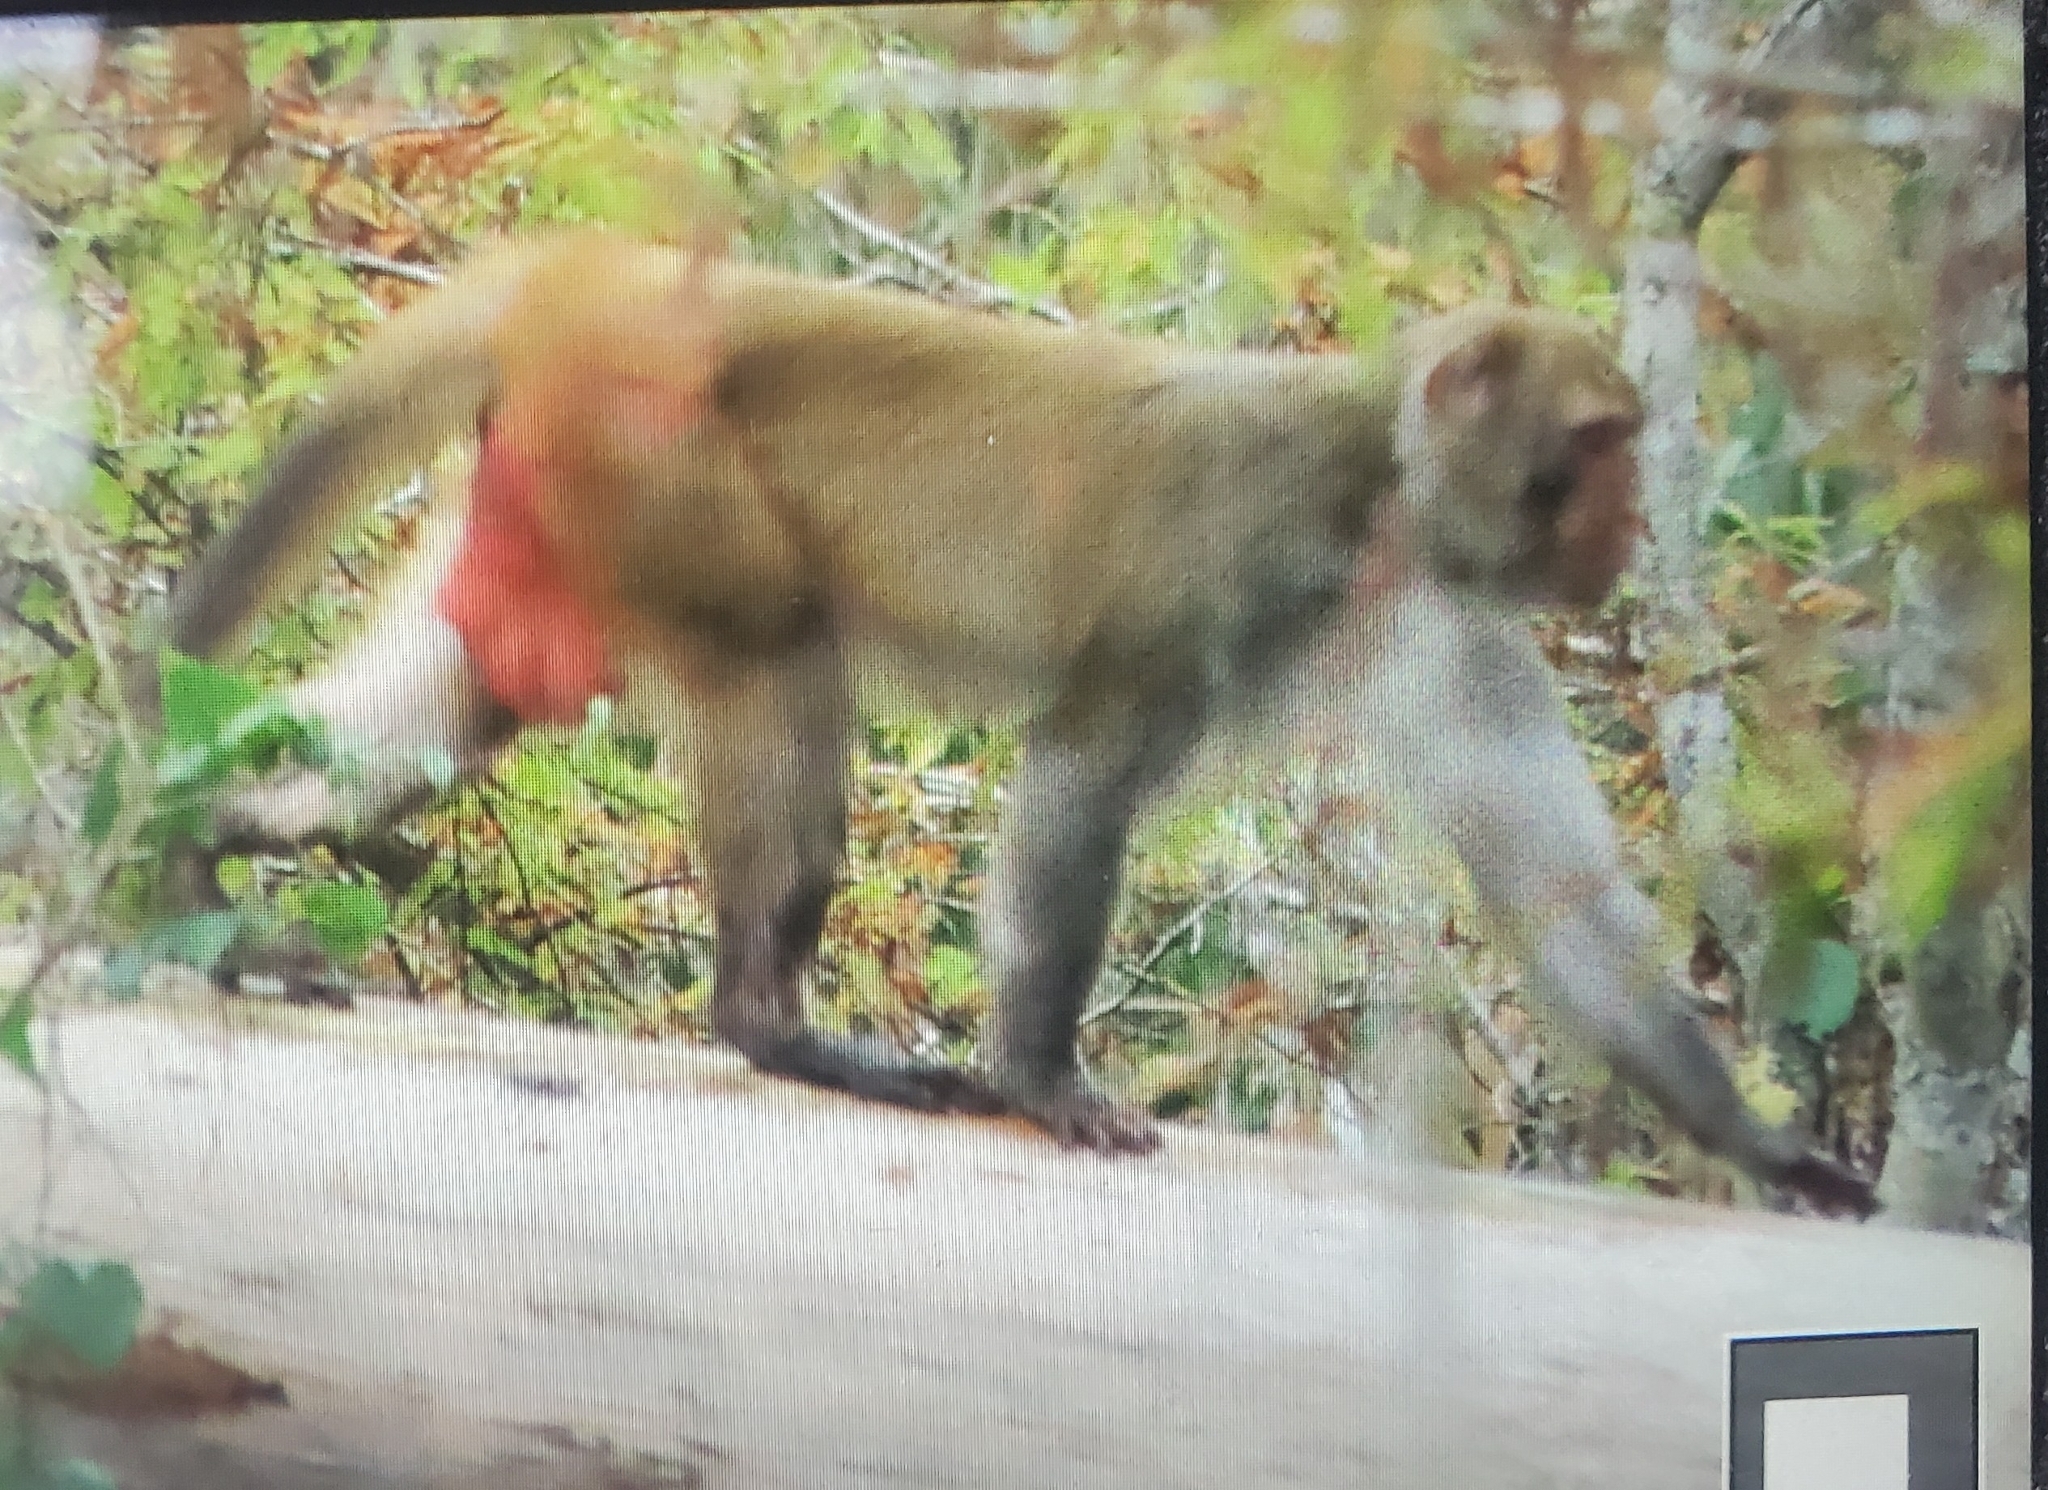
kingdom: Animalia
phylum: Chordata
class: Mammalia
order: Primates
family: Cercopithecidae
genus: Macaca
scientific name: Macaca mulatta
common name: Rhesus monkey
